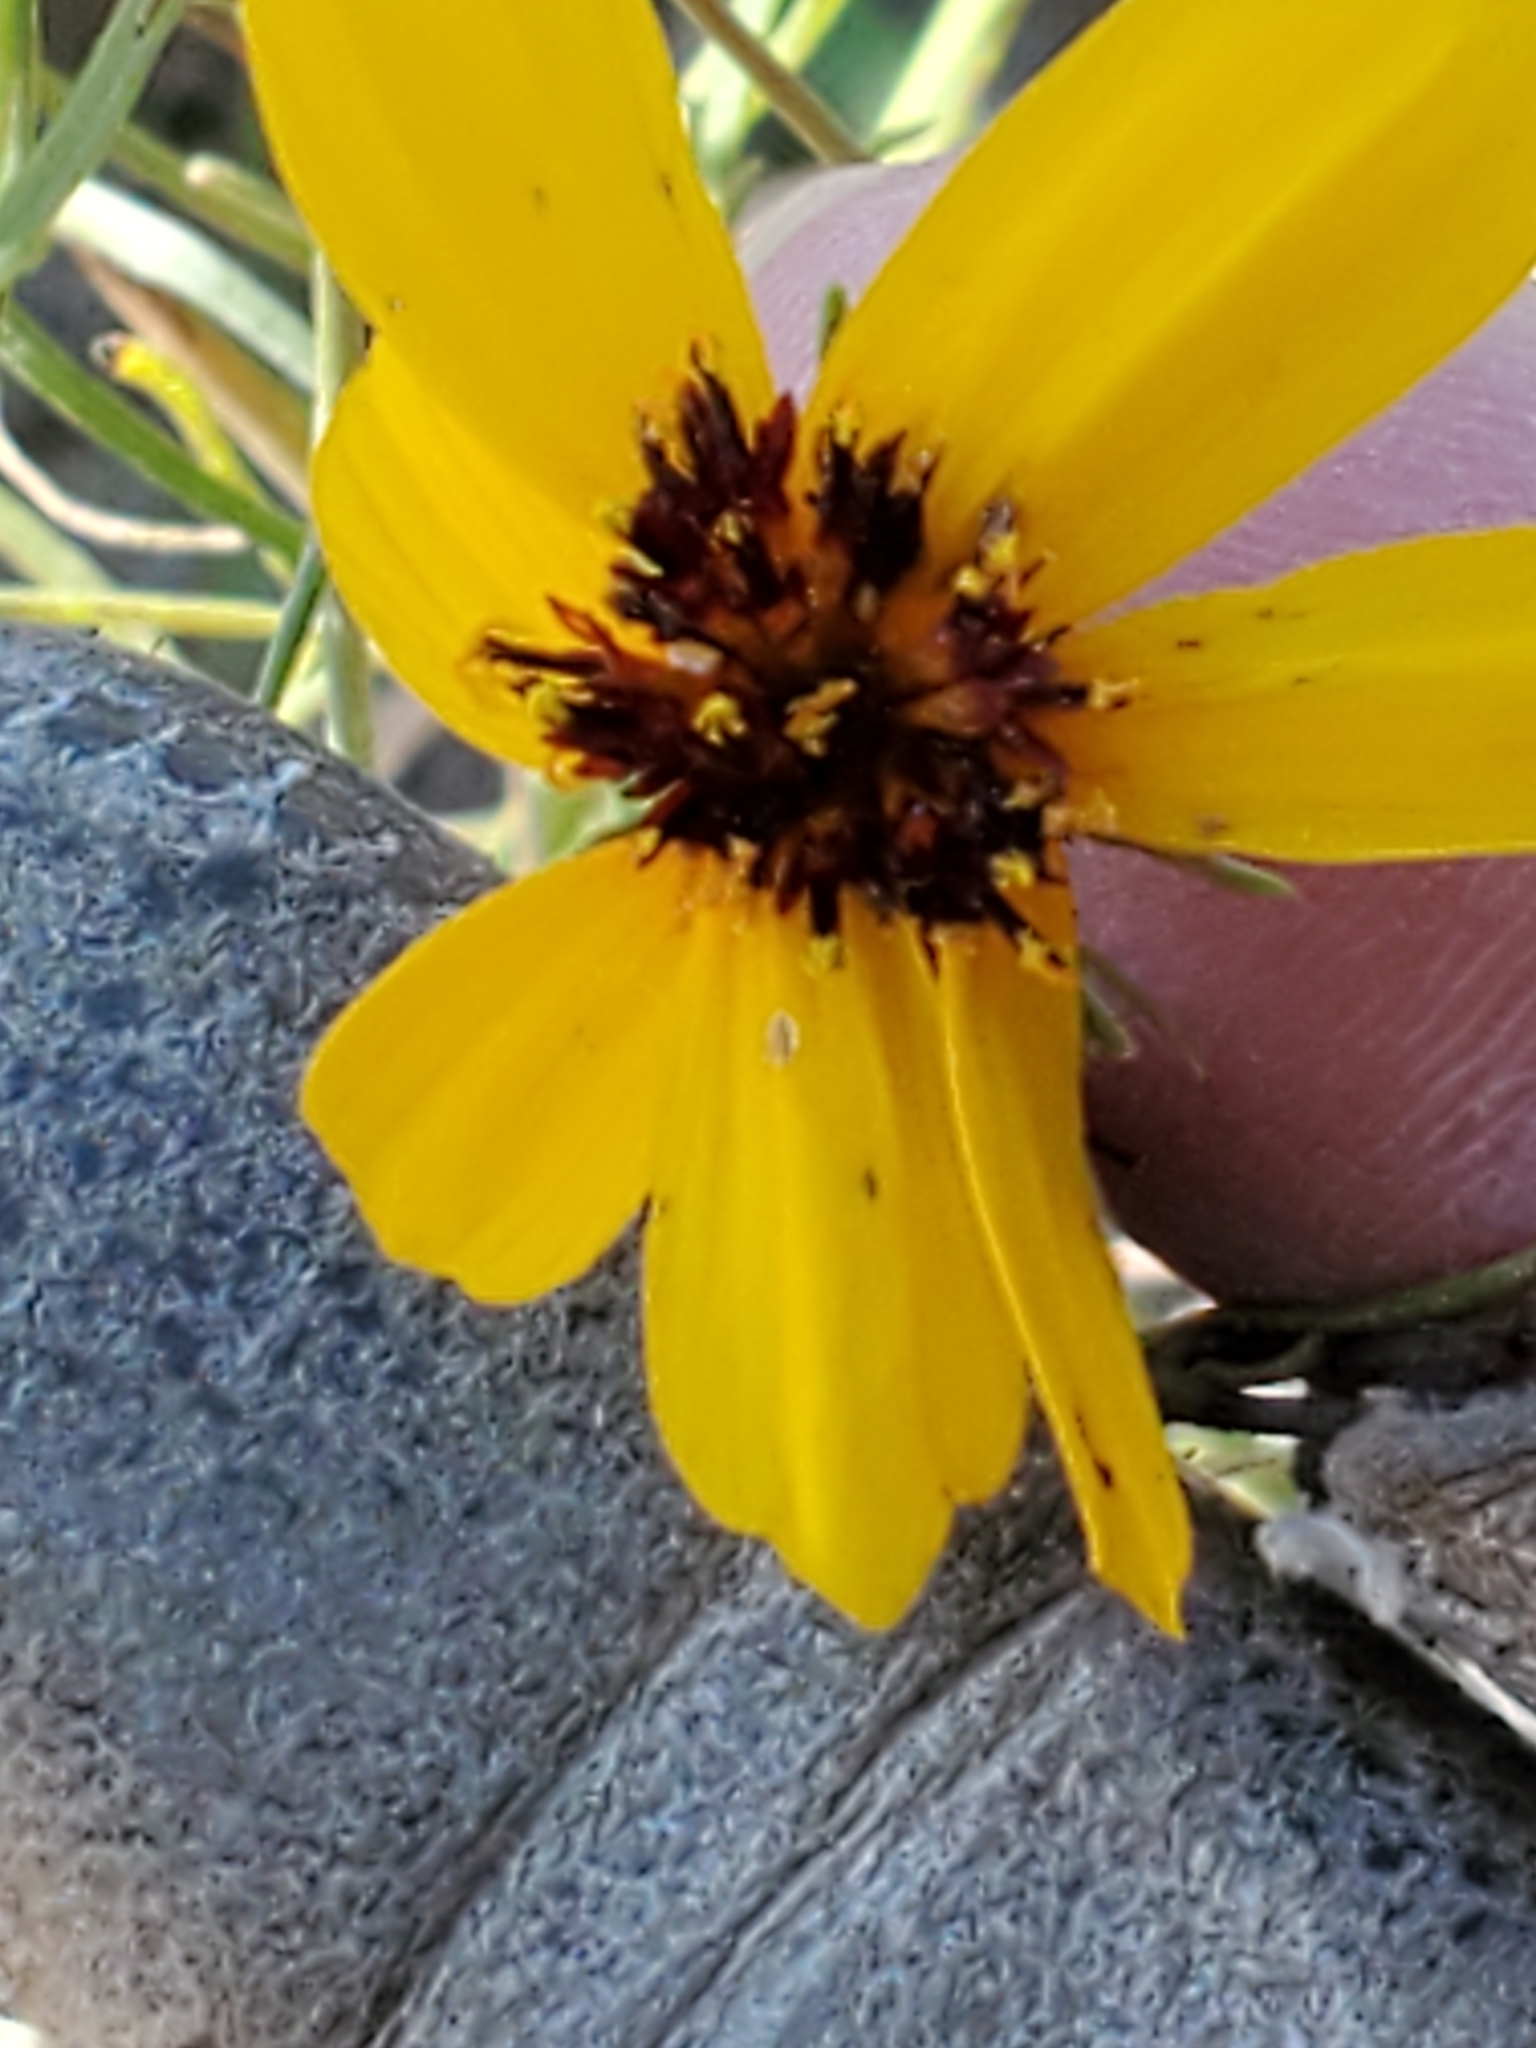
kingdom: Plantae
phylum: Tracheophyta
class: Magnoliopsida
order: Asterales
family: Asteraceae
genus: Thelesperma
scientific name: Thelesperma filifolium
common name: Stiff greenthread
